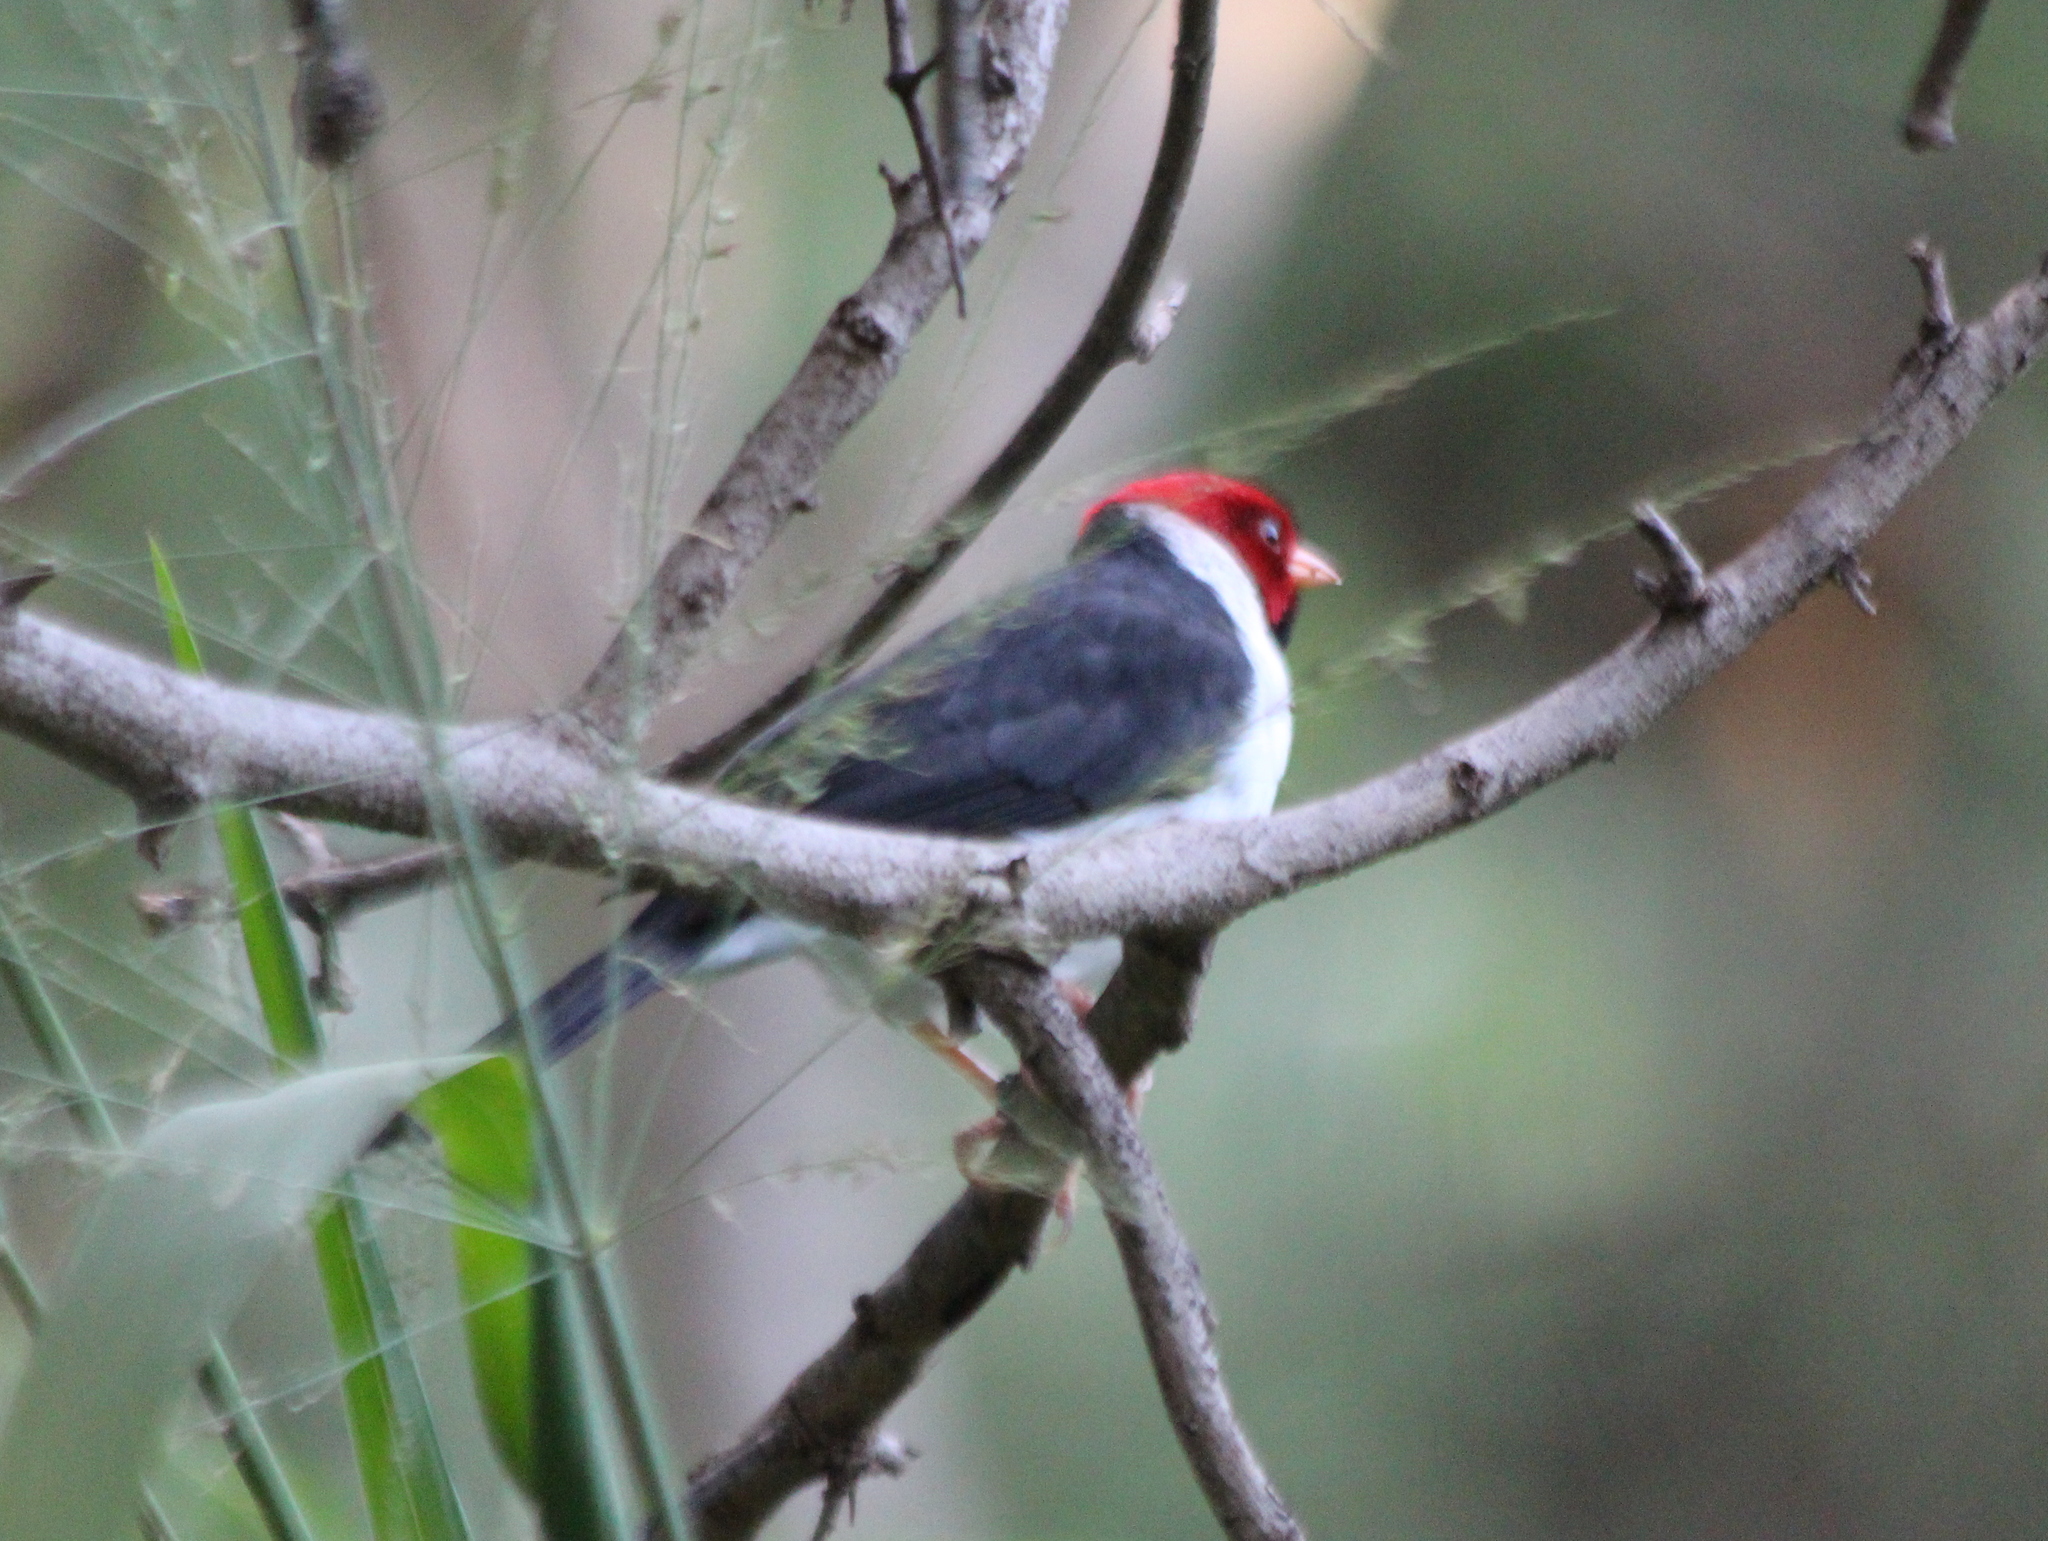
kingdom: Animalia
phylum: Chordata
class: Aves
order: Passeriformes
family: Thraupidae
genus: Paroaria
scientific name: Paroaria capitata
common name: Yellow-billed cardinal
